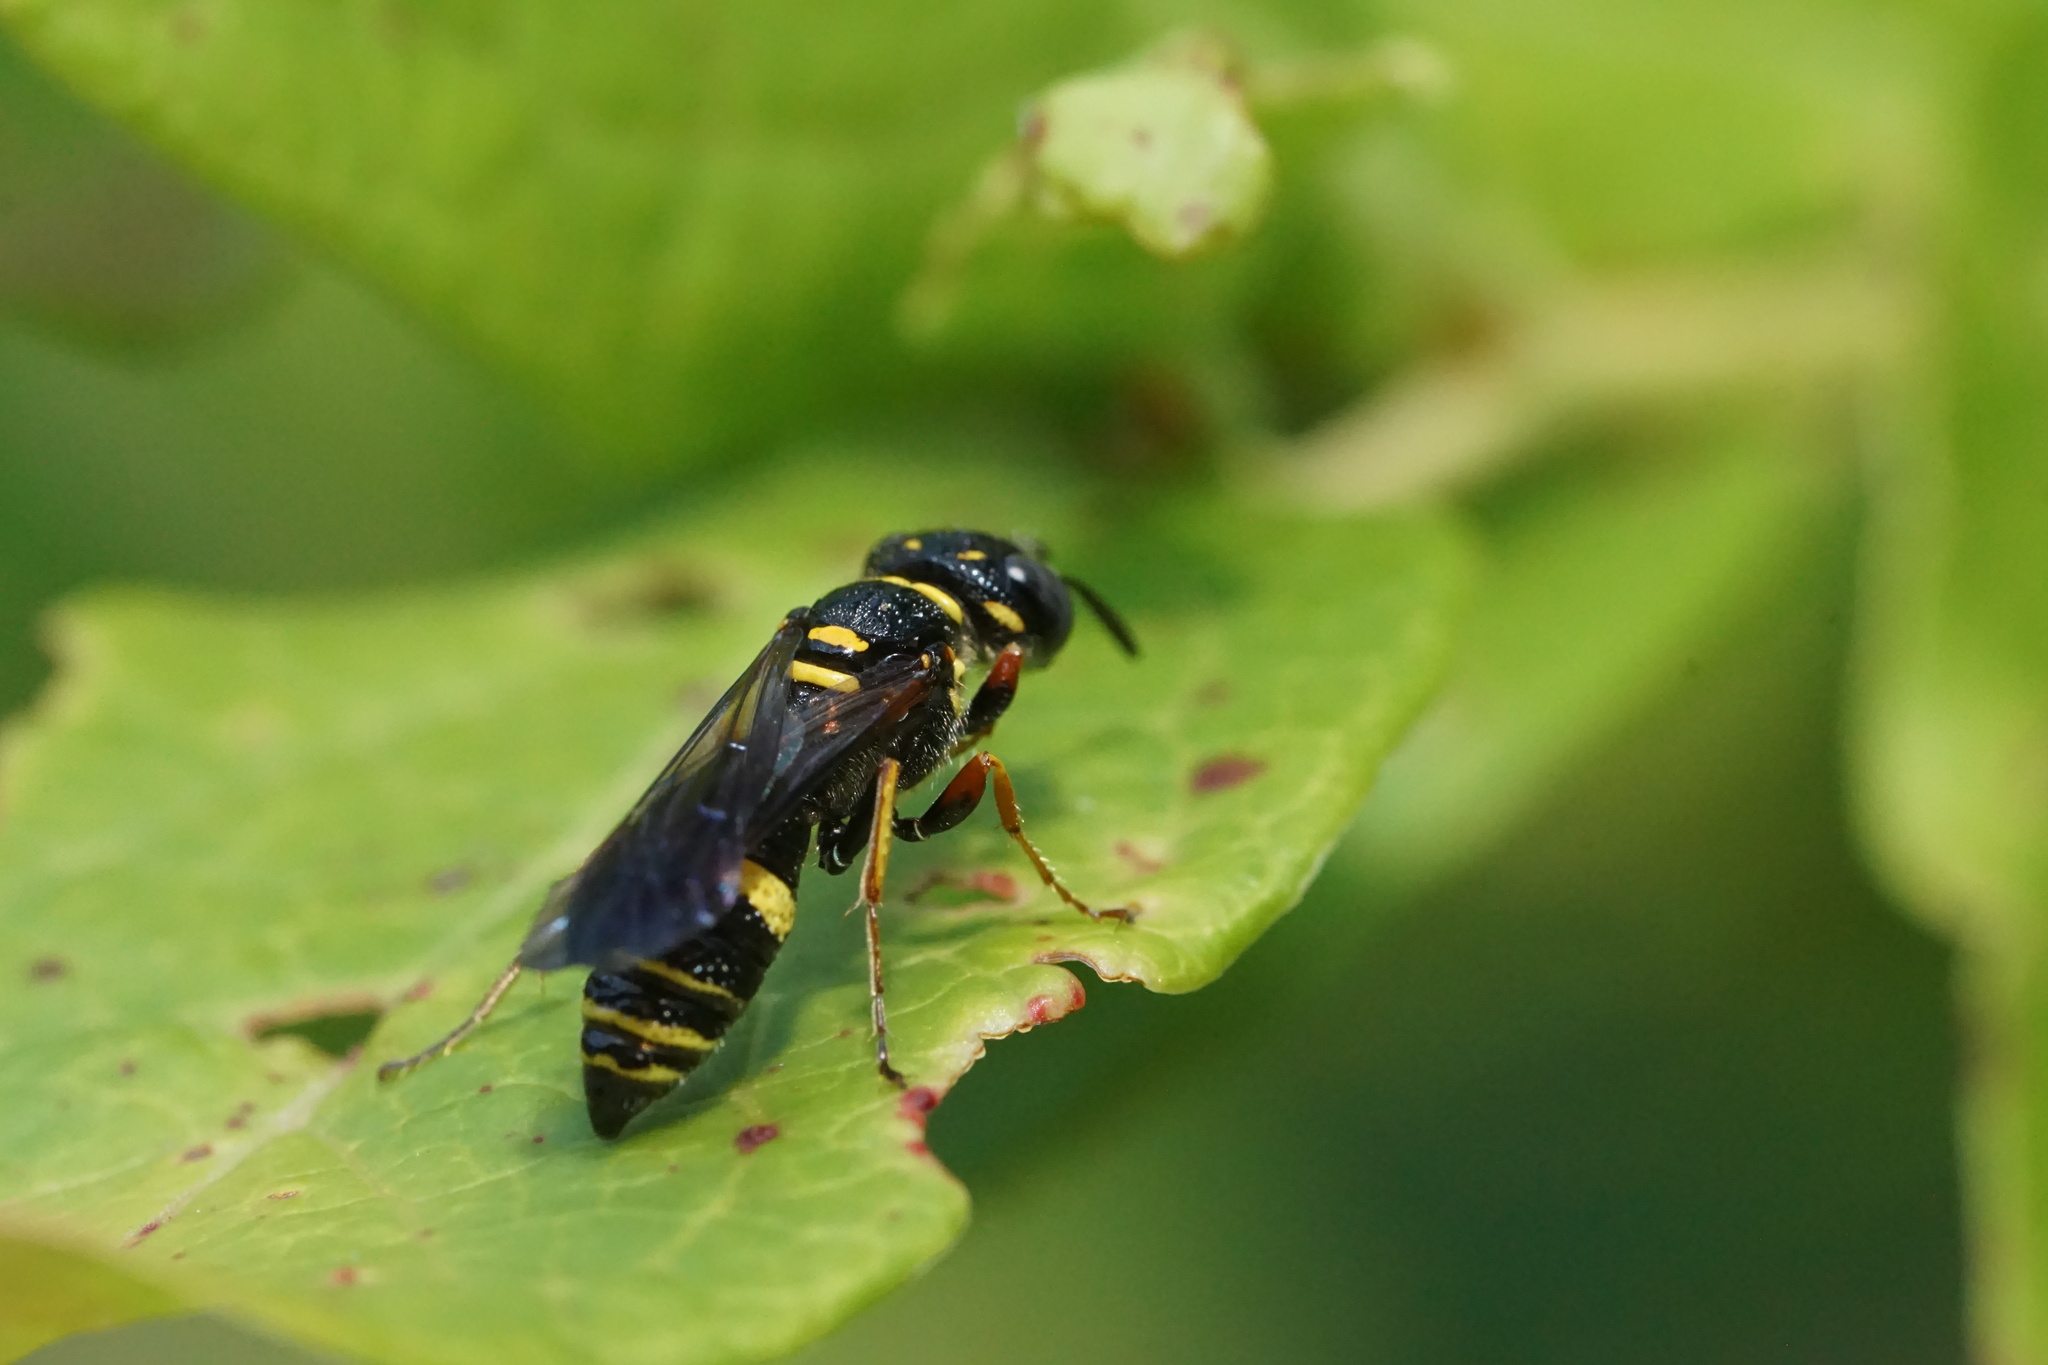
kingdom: Animalia
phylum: Arthropoda
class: Insecta
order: Hymenoptera
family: Crabronidae
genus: Philanthus
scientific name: Philanthus gibbosus
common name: Humped beewolf
